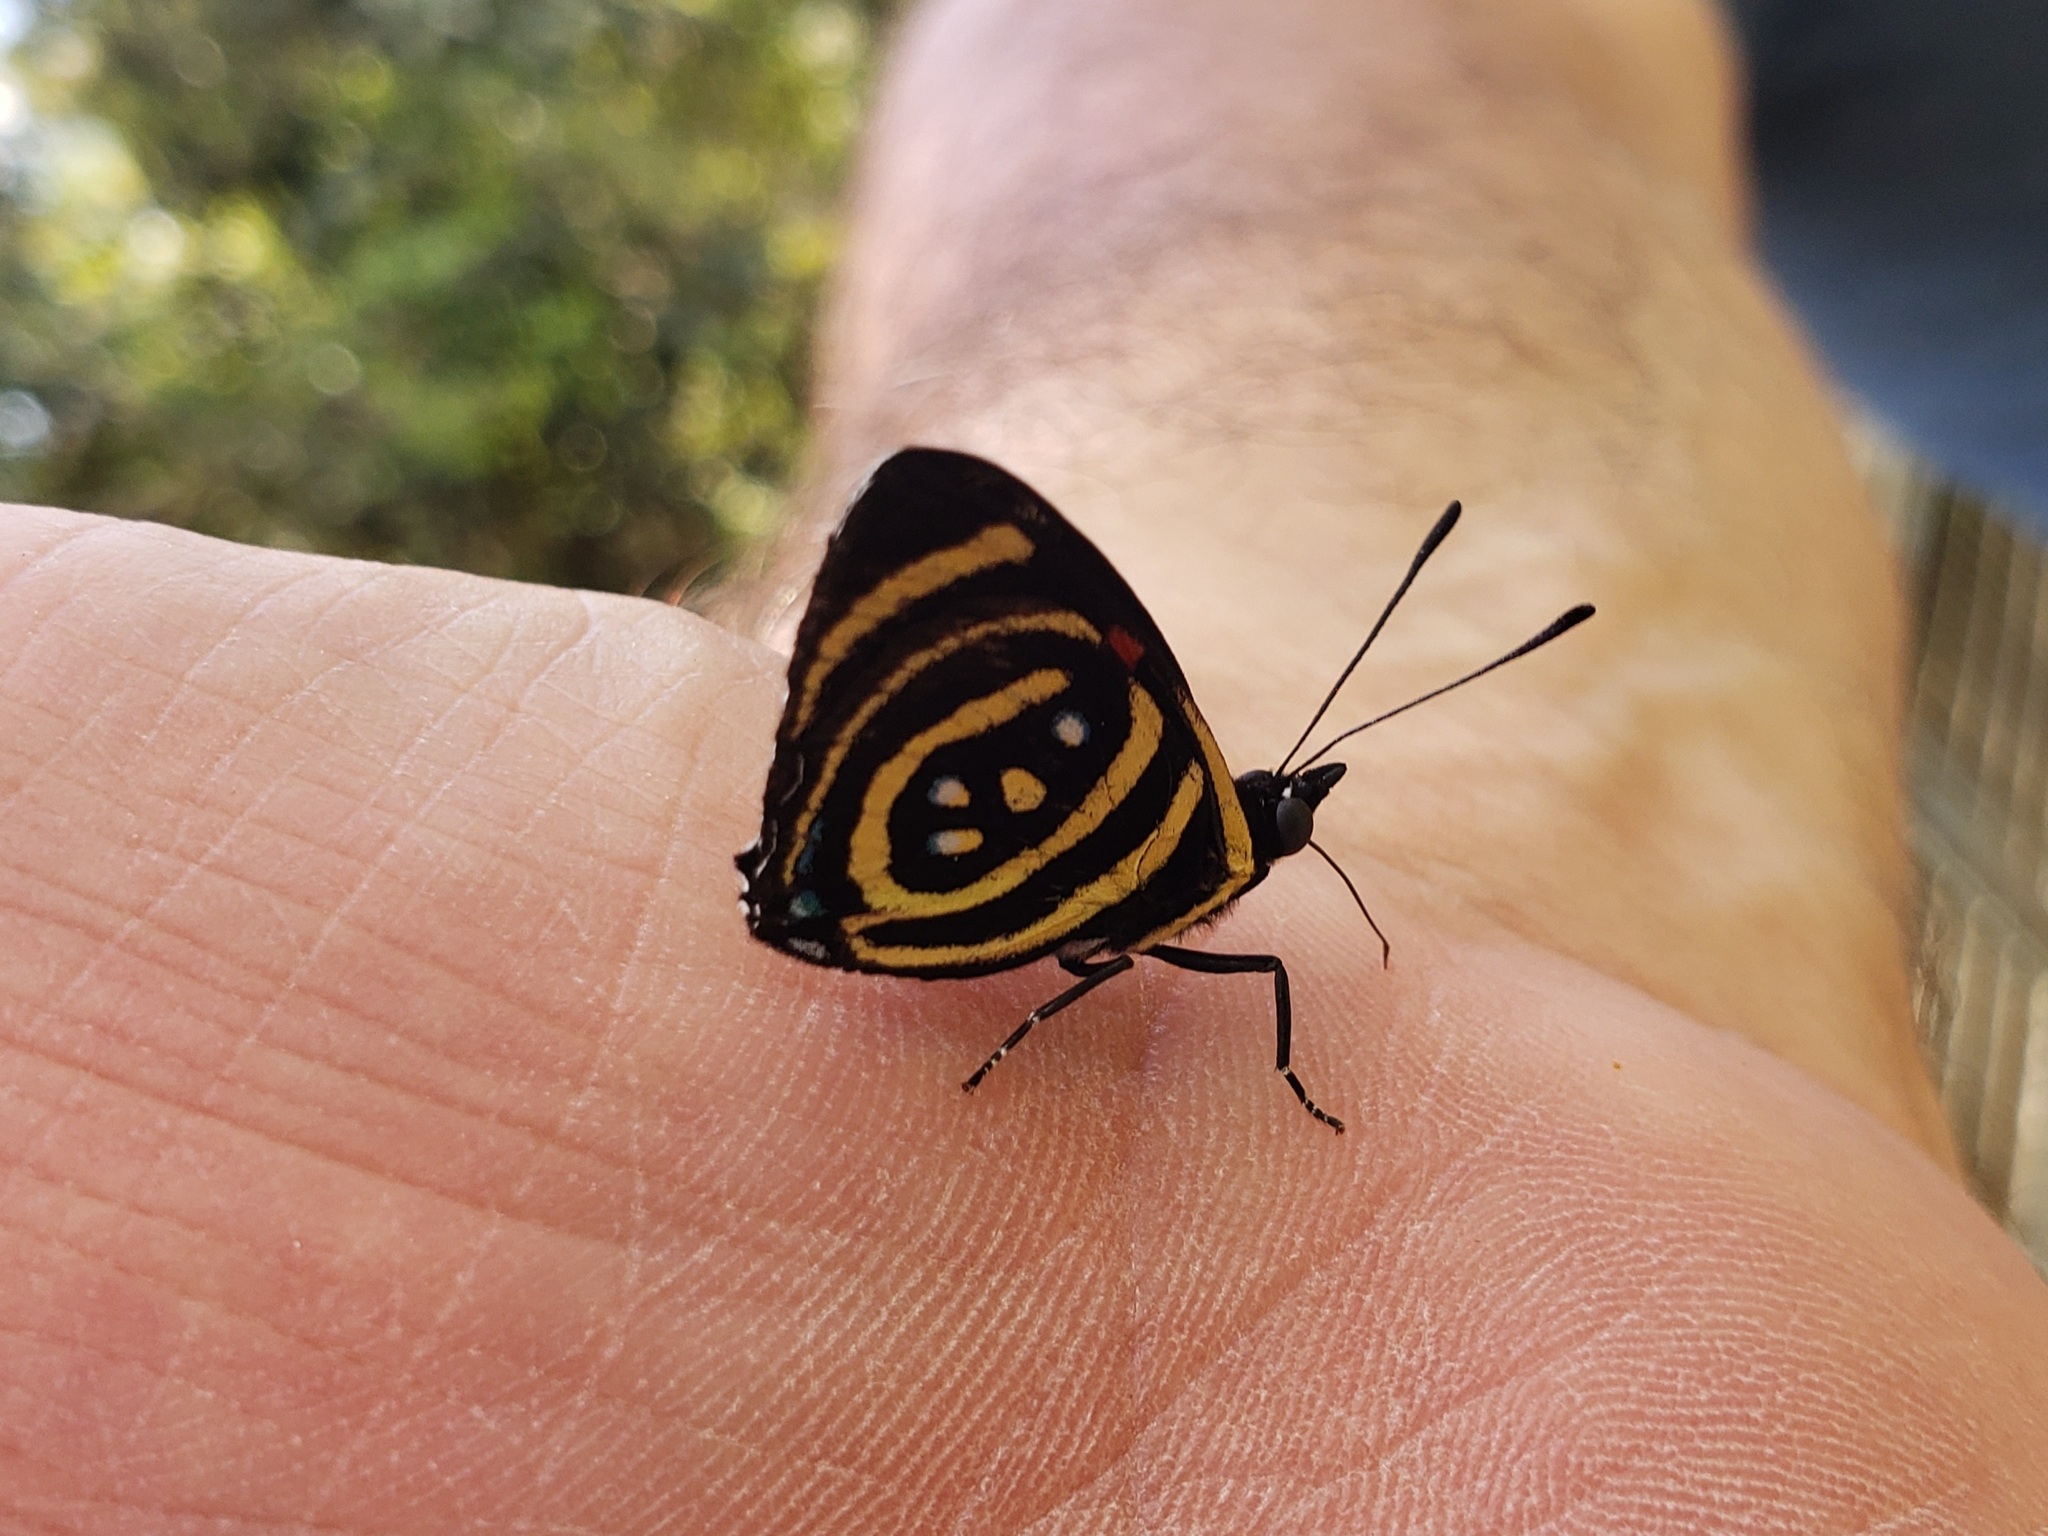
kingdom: Animalia
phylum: Arthropoda
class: Insecta
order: Lepidoptera
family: Nymphalidae
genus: Catagramma
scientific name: Catagramma Callicore hydaspes
